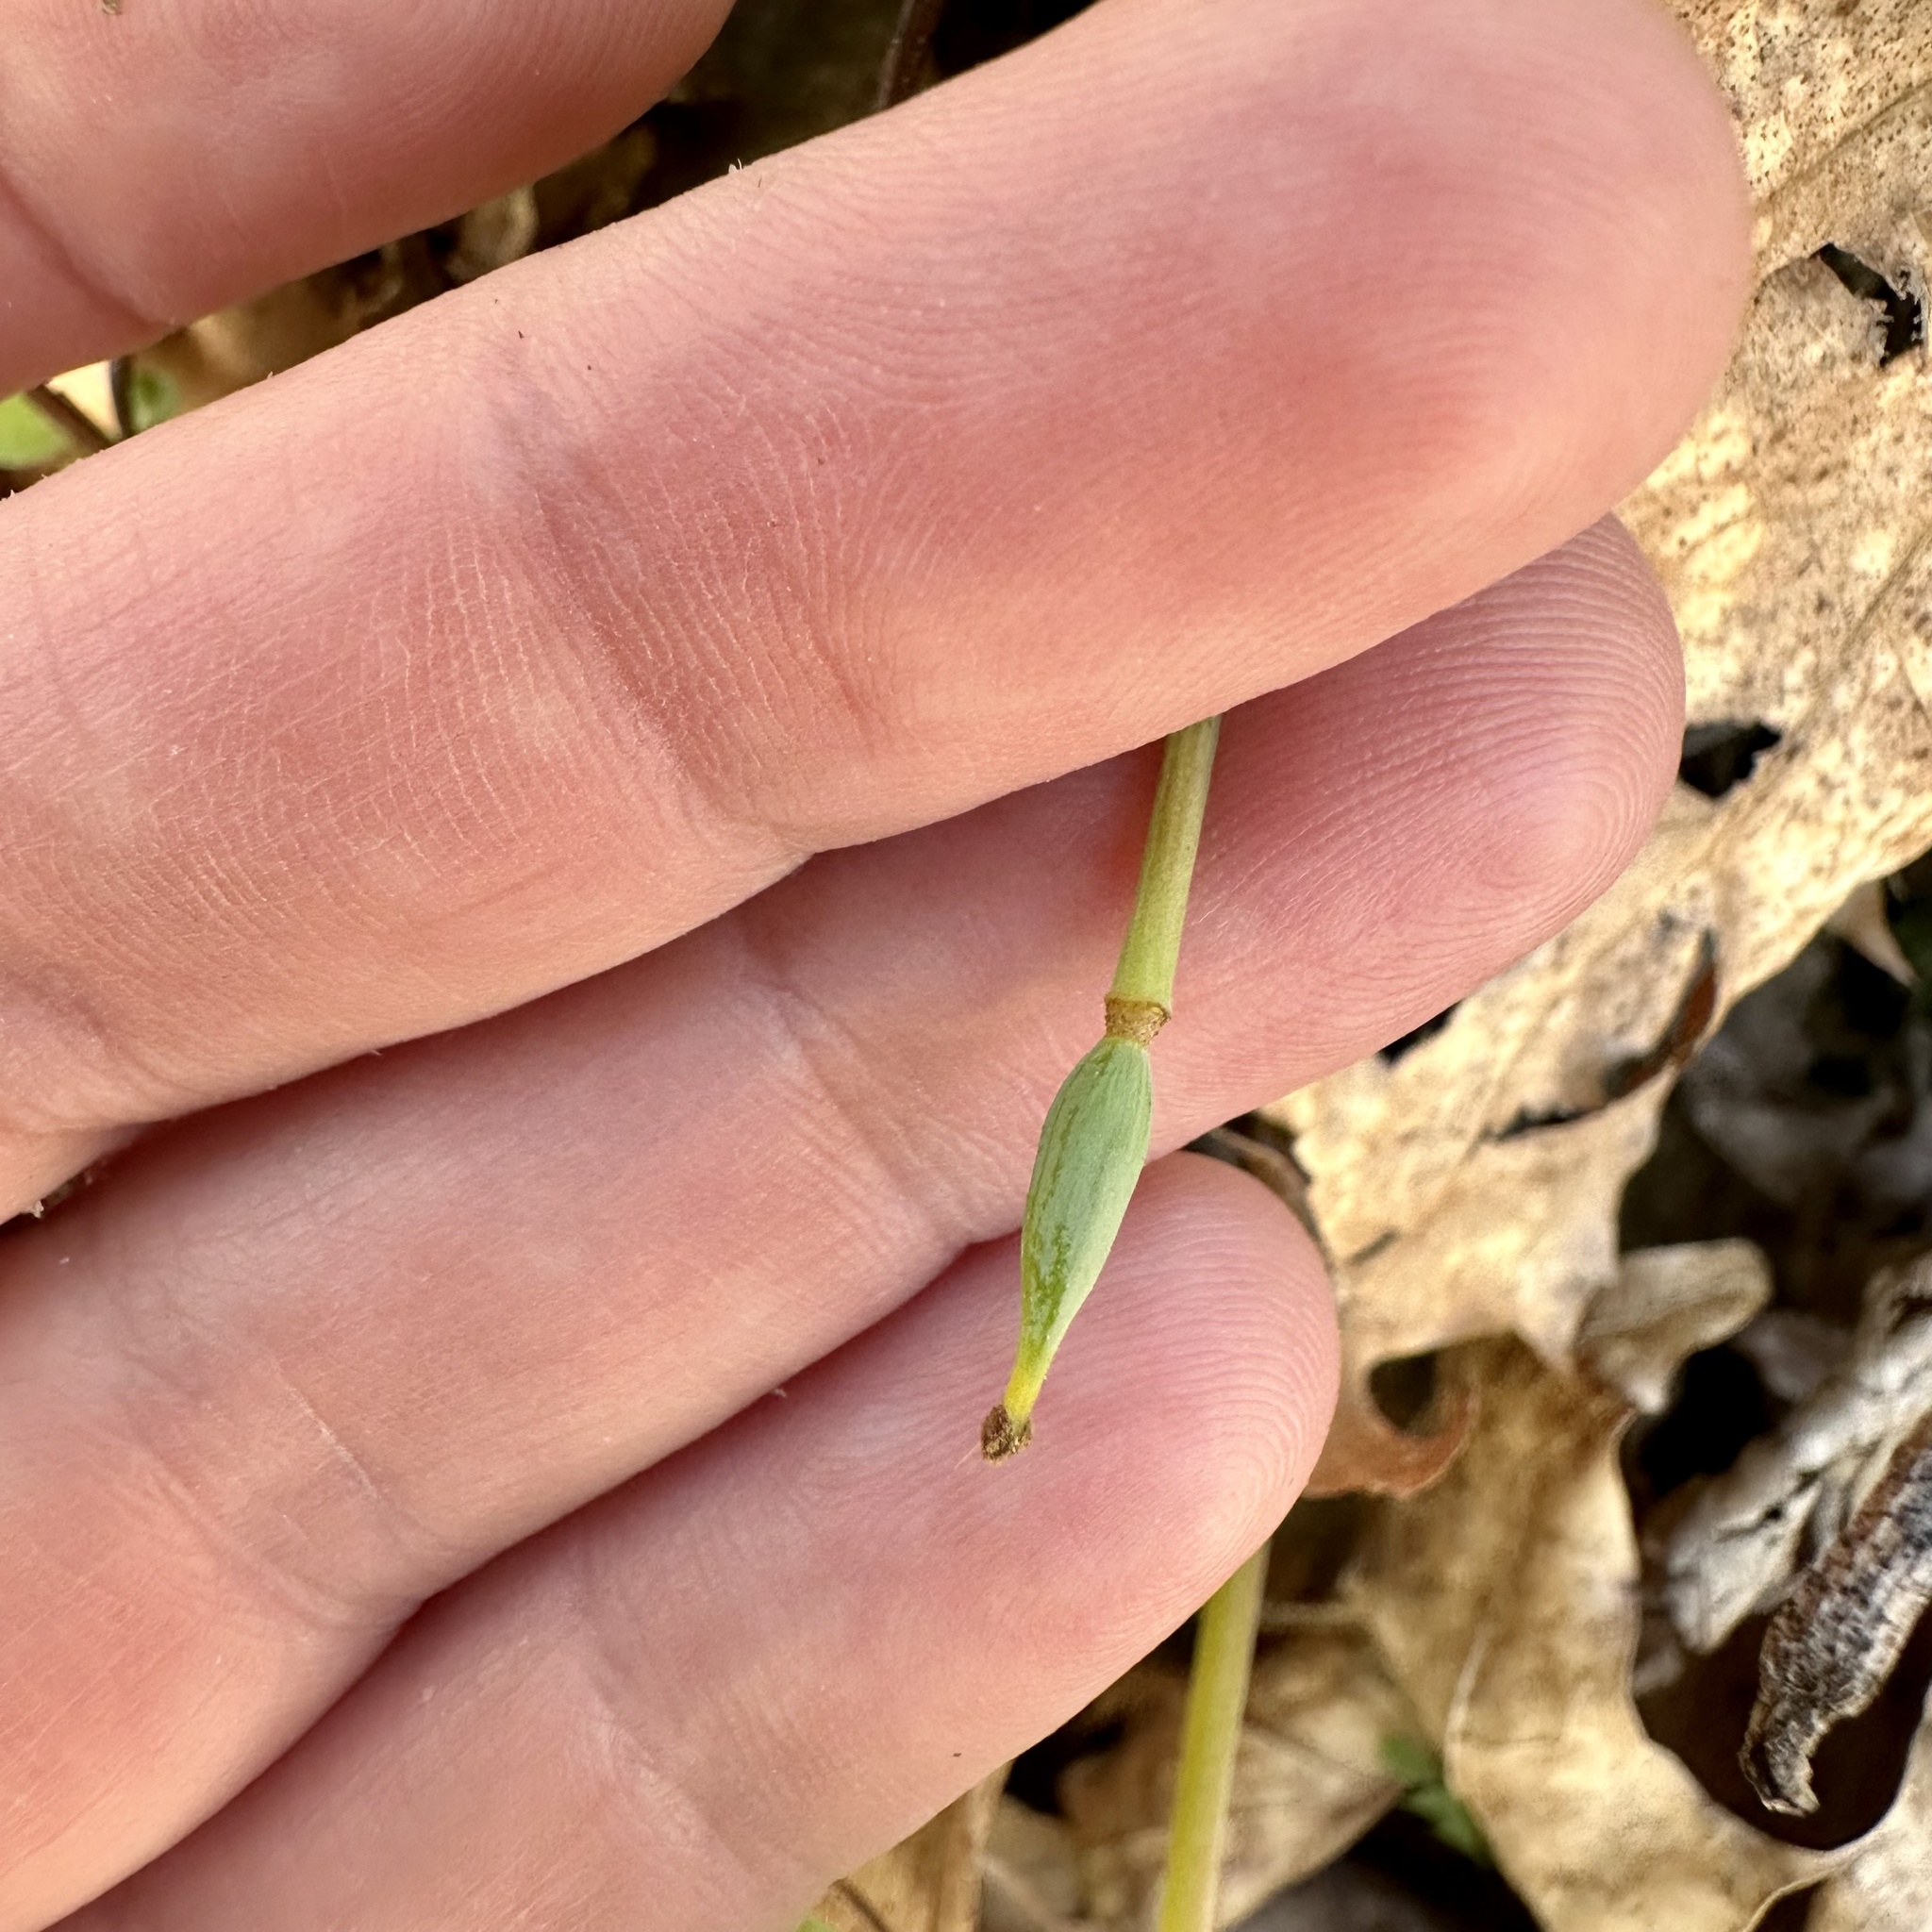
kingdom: Plantae
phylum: Tracheophyta
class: Magnoliopsida
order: Ranunculales
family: Papaveraceae
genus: Sanguinaria
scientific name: Sanguinaria canadensis
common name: Bloodroot
